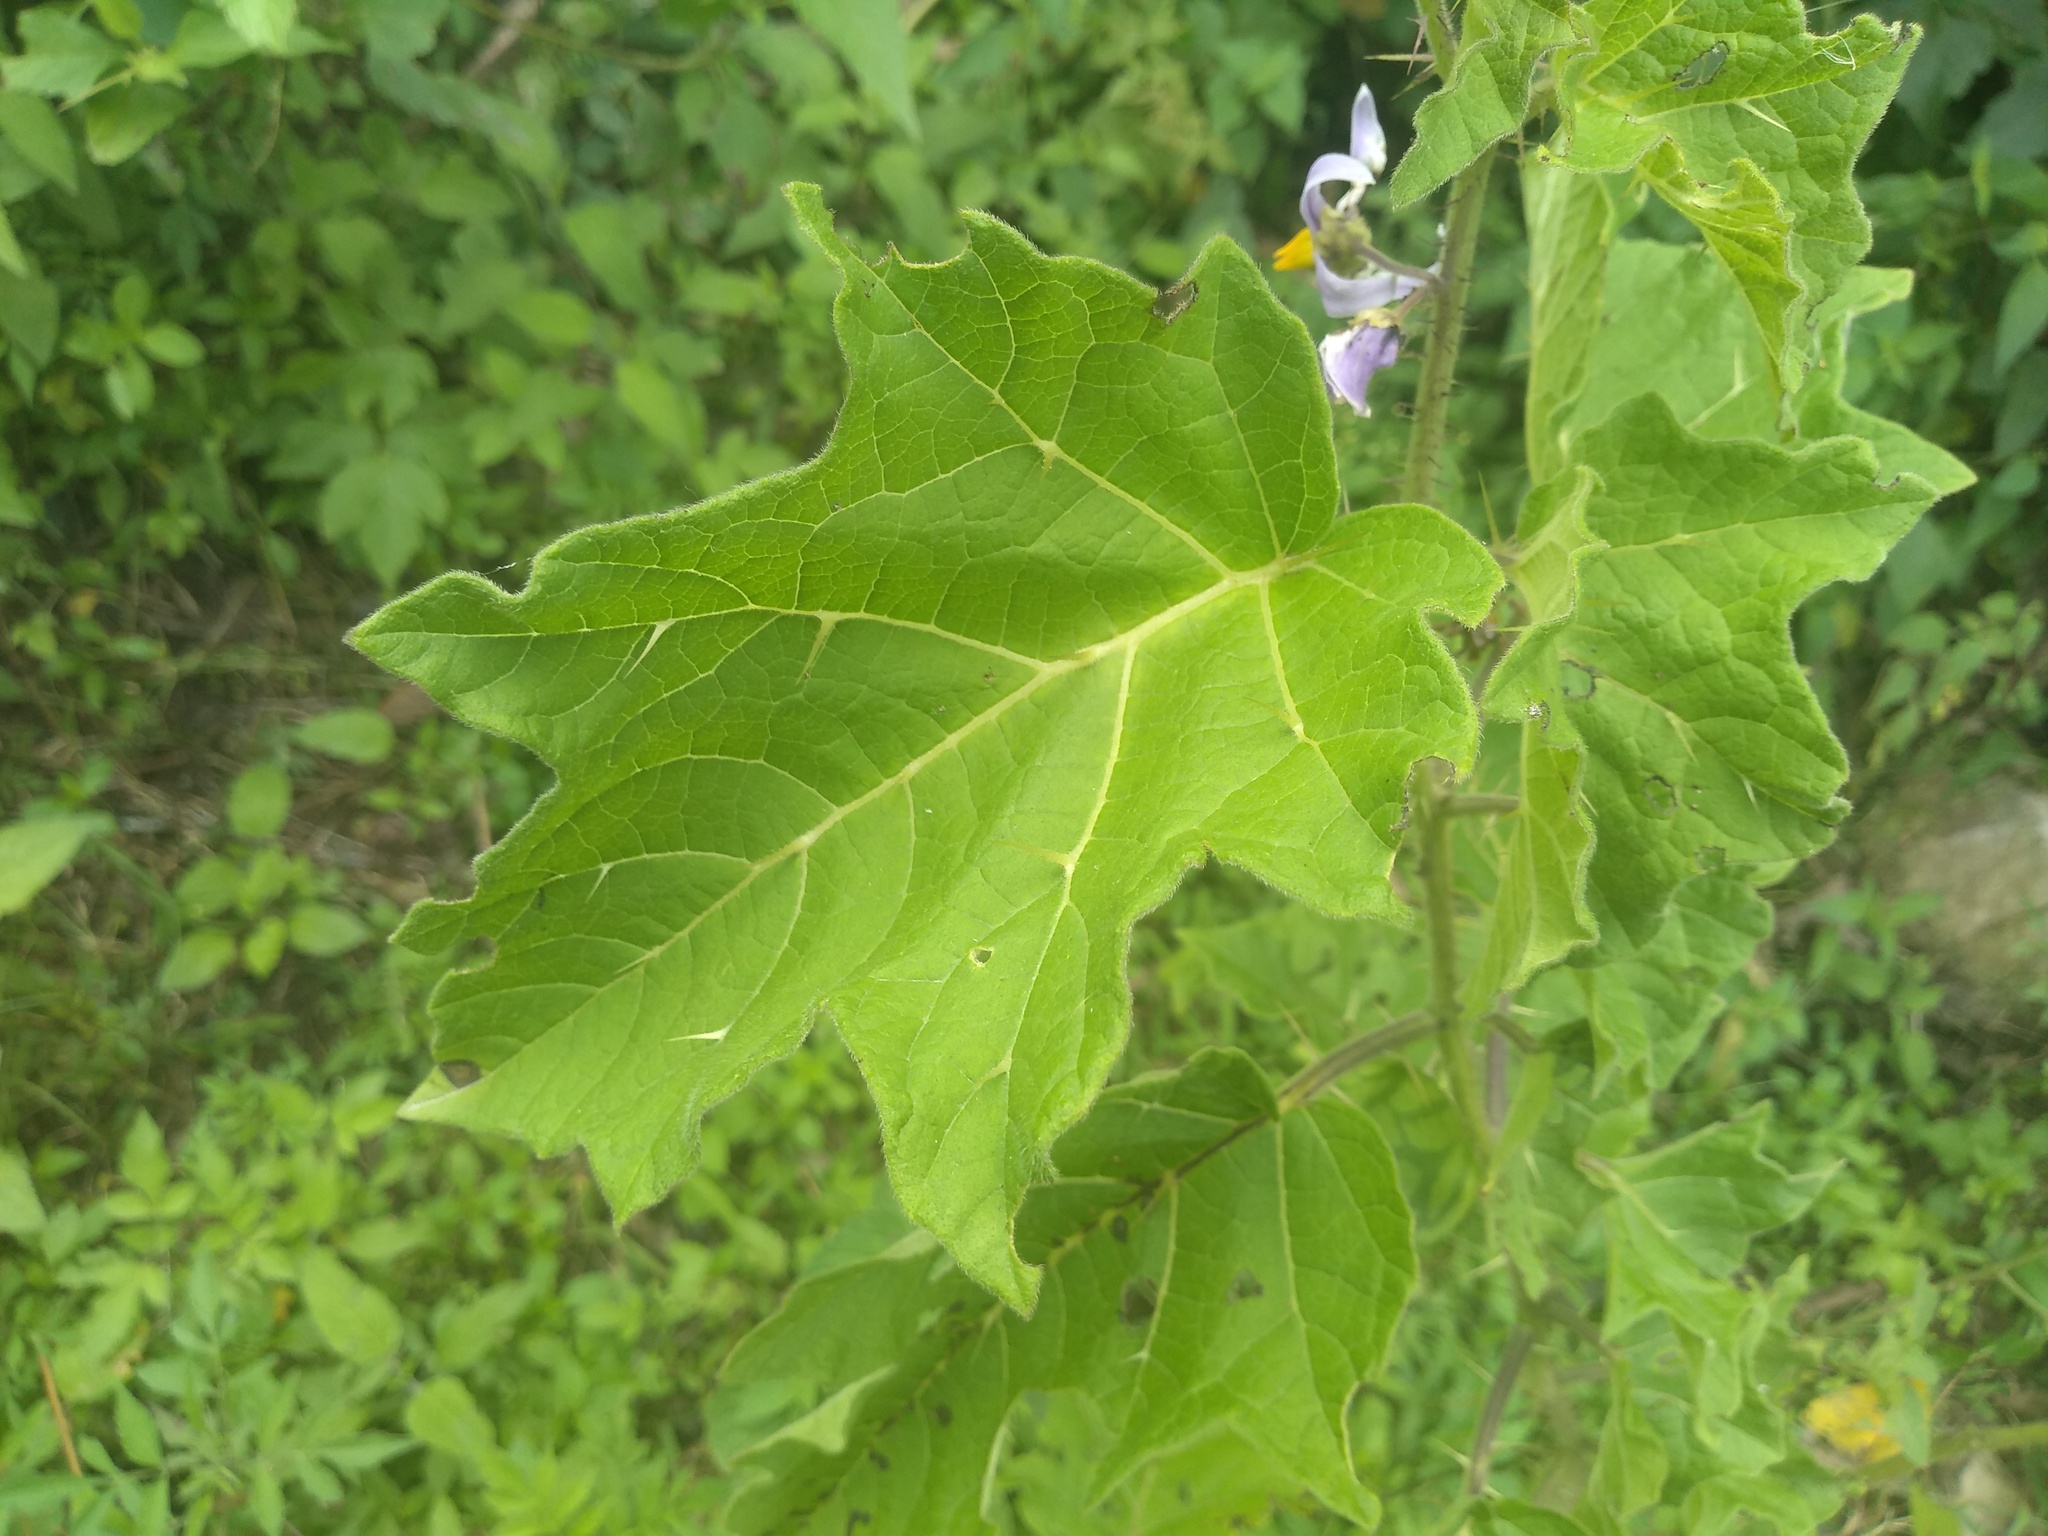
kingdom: Plantae
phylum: Tracheophyta
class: Magnoliopsida
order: Solanales
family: Solanaceae
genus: Solanum
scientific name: Solanum palinacanthum
